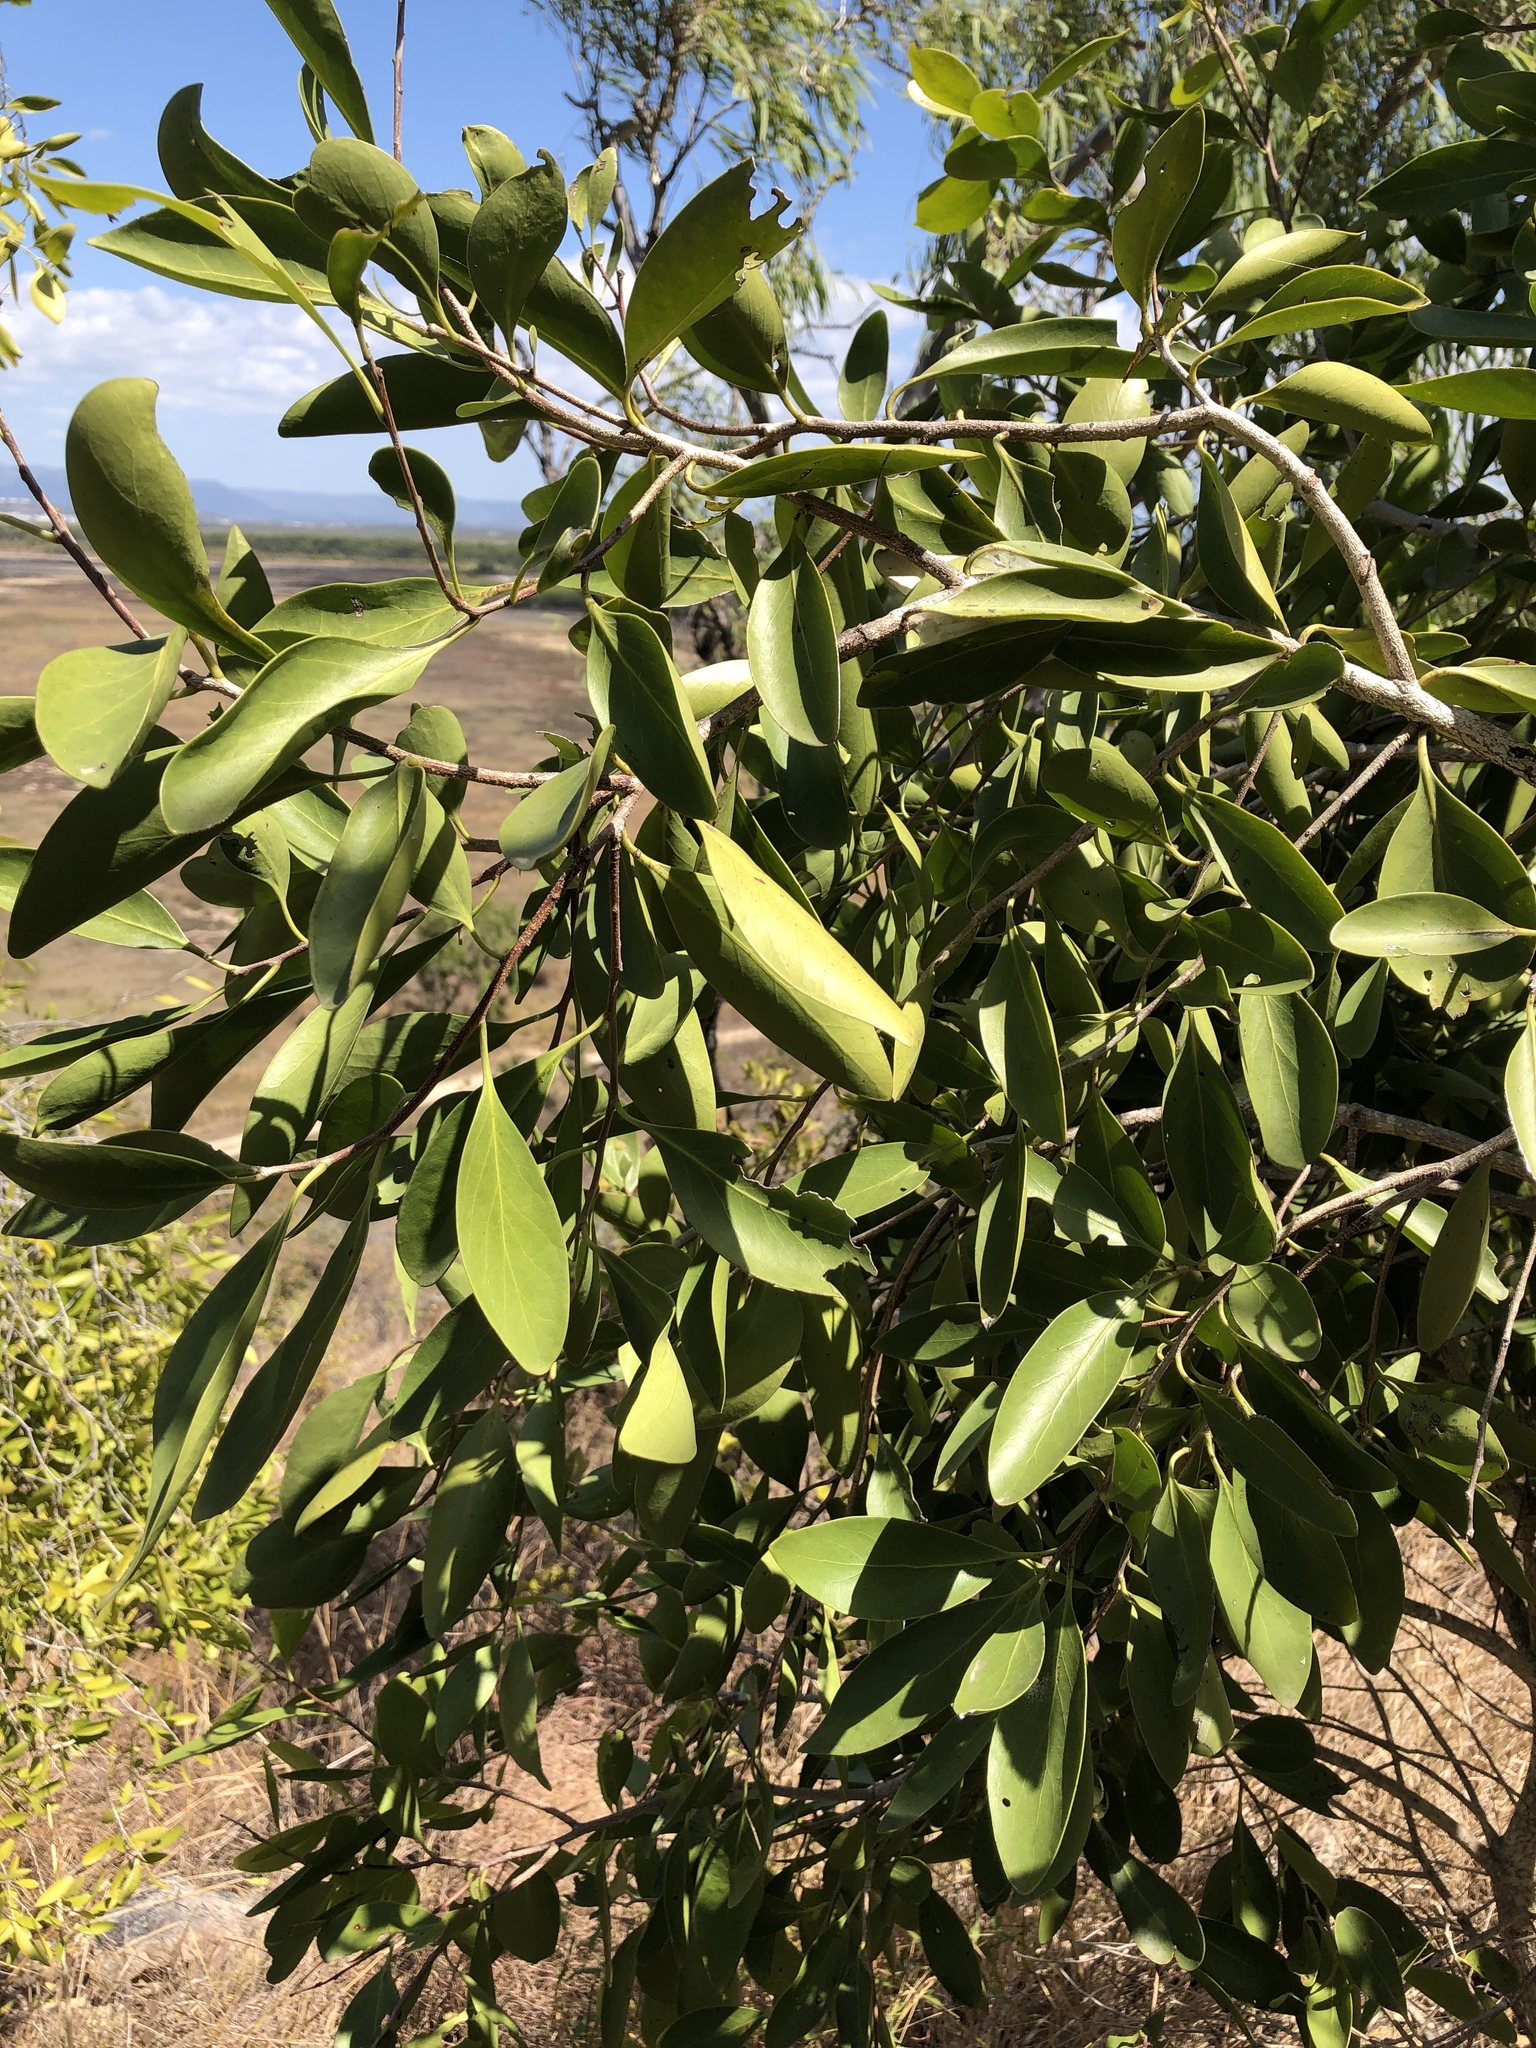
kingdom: Plantae
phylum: Tracheophyta
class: Magnoliopsida
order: Celastrales
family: Celastraceae
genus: Denhamia
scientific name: Denhamia disperma
